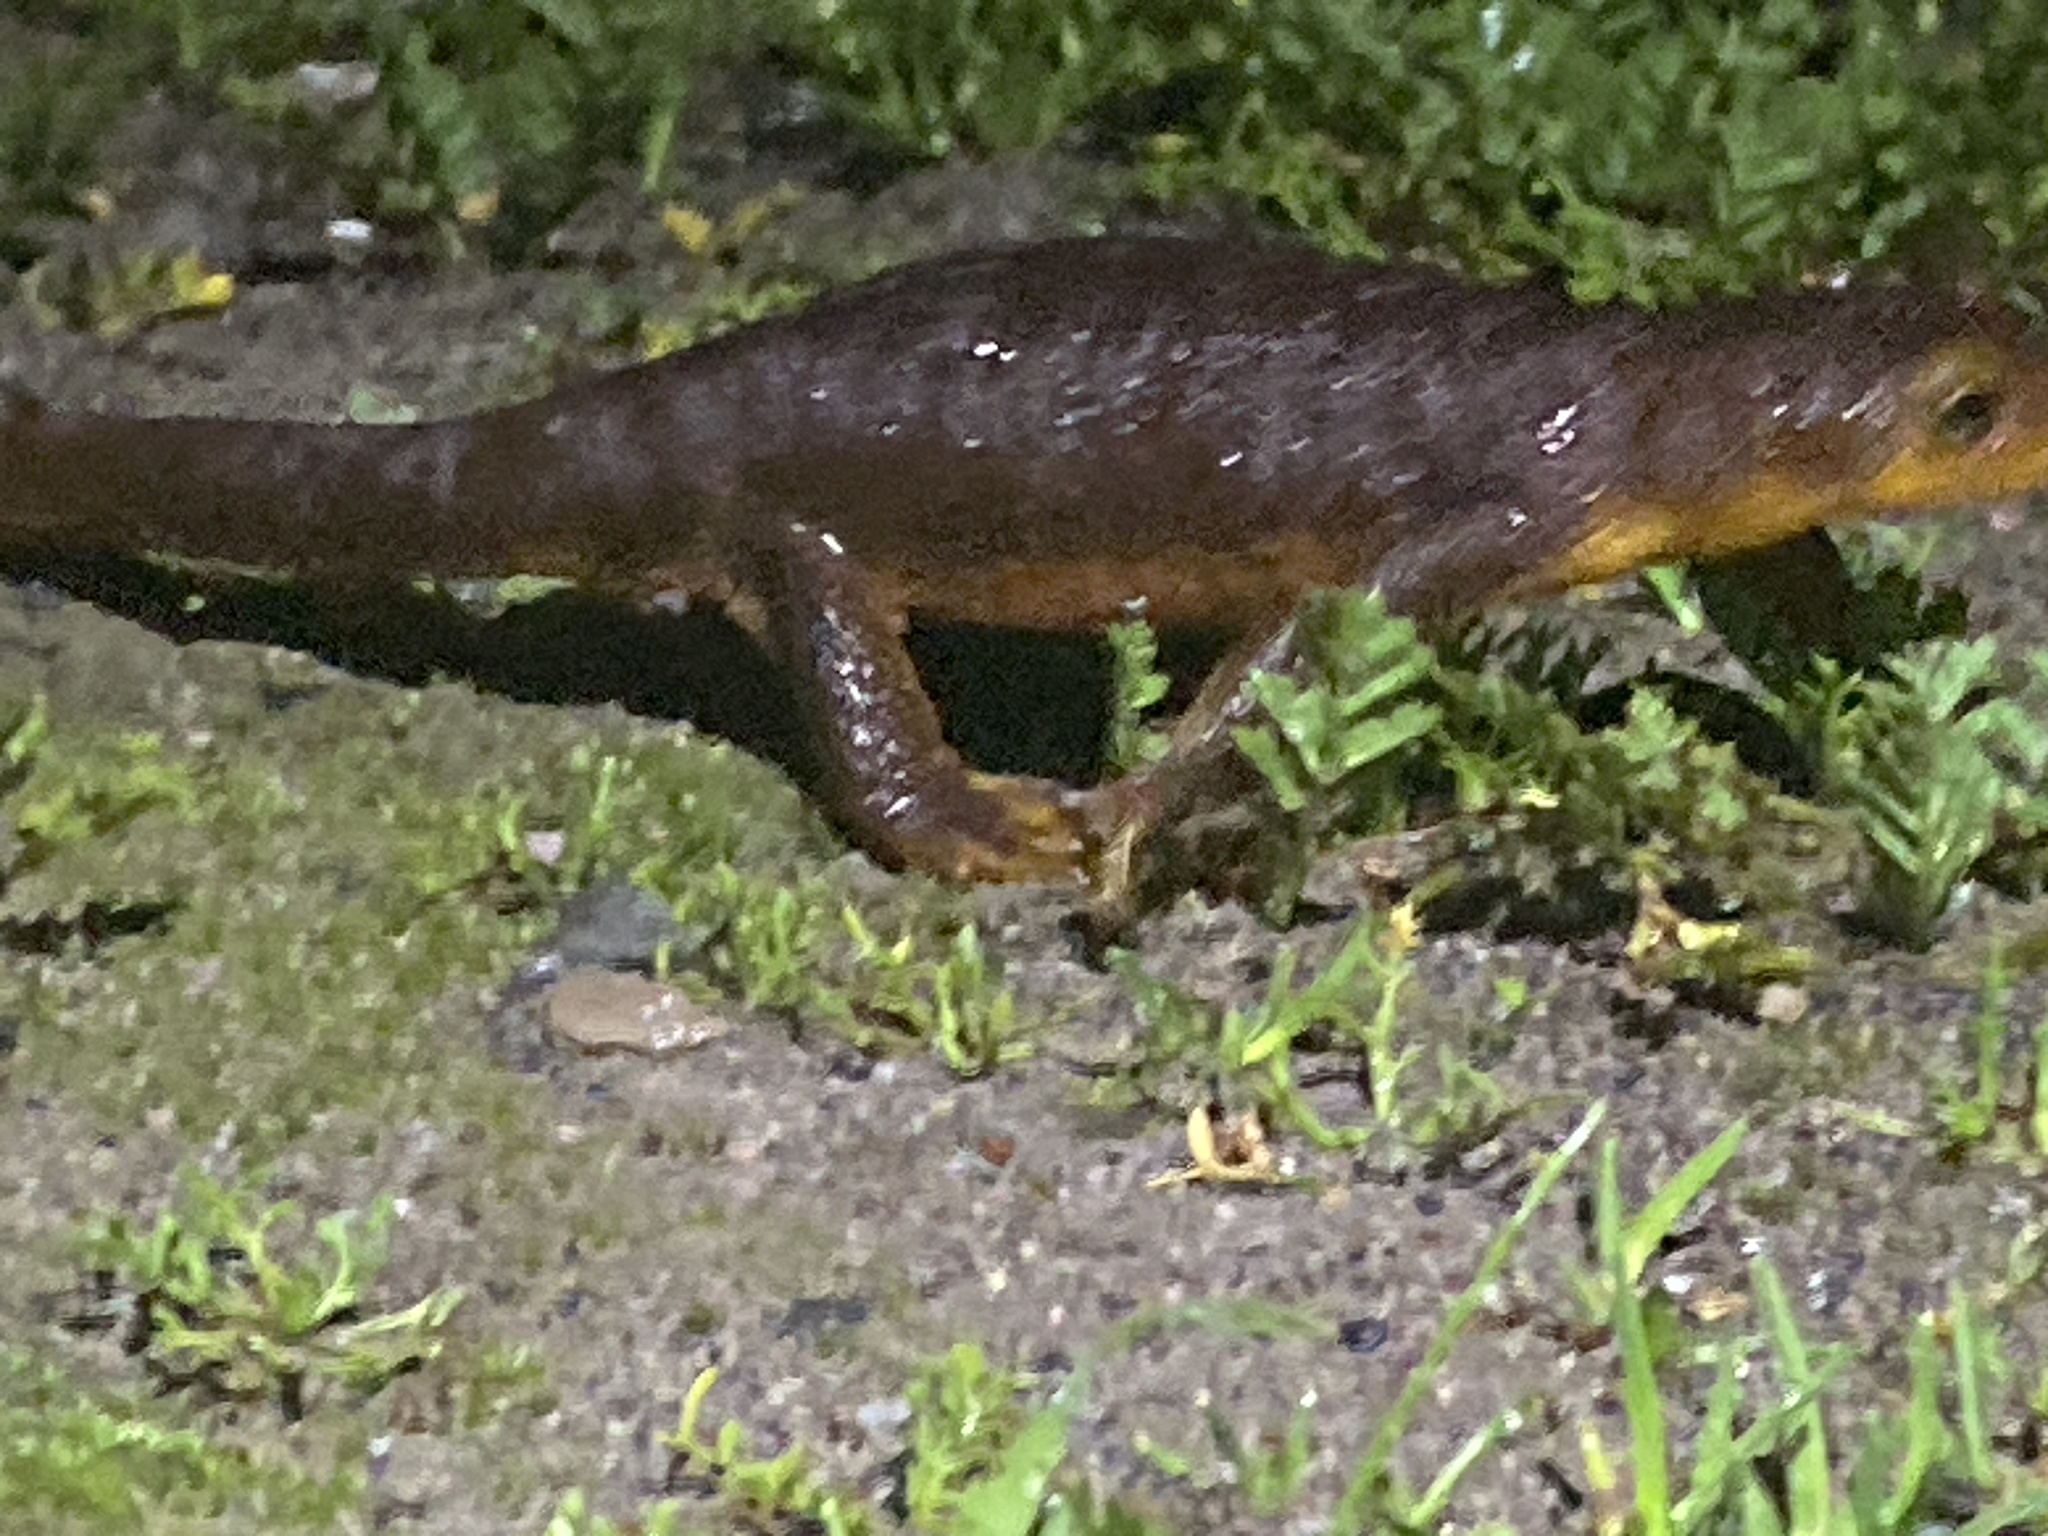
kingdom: Animalia
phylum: Chordata
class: Amphibia
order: Caudata
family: Salamandridae
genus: Taricha
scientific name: Taricha torosa
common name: California newt
